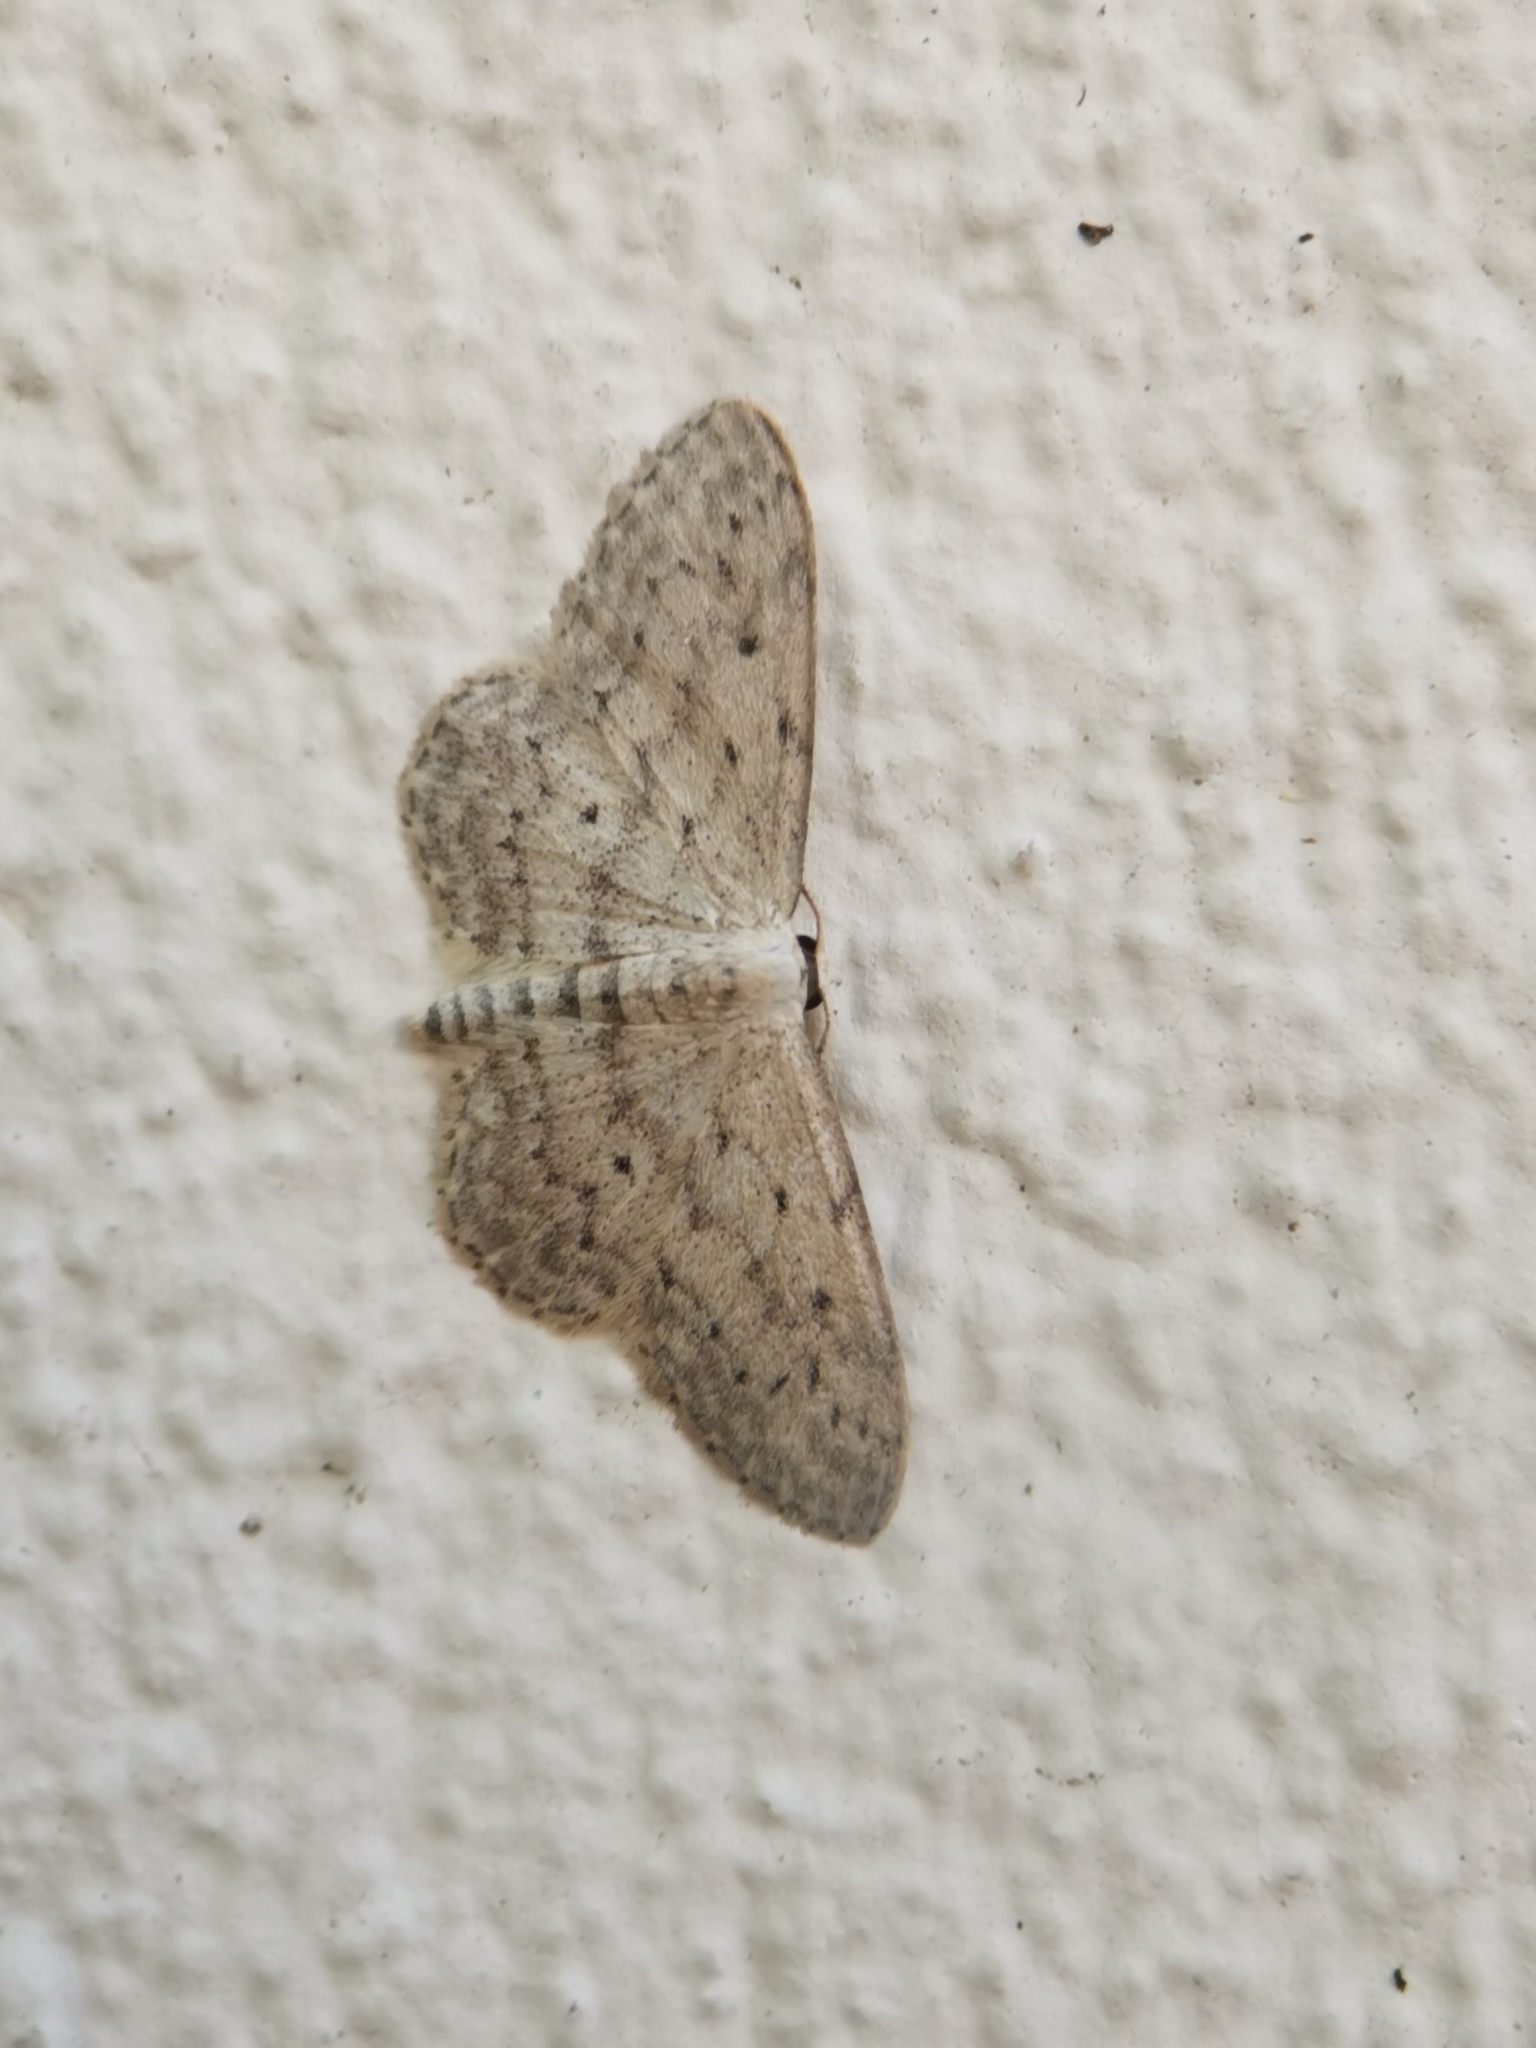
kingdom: Animalia
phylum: Arthropoda
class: Insecta
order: Lepidoptera
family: Geometridae
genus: Idaea
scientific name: Idaea seriata
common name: Small dusty wave
